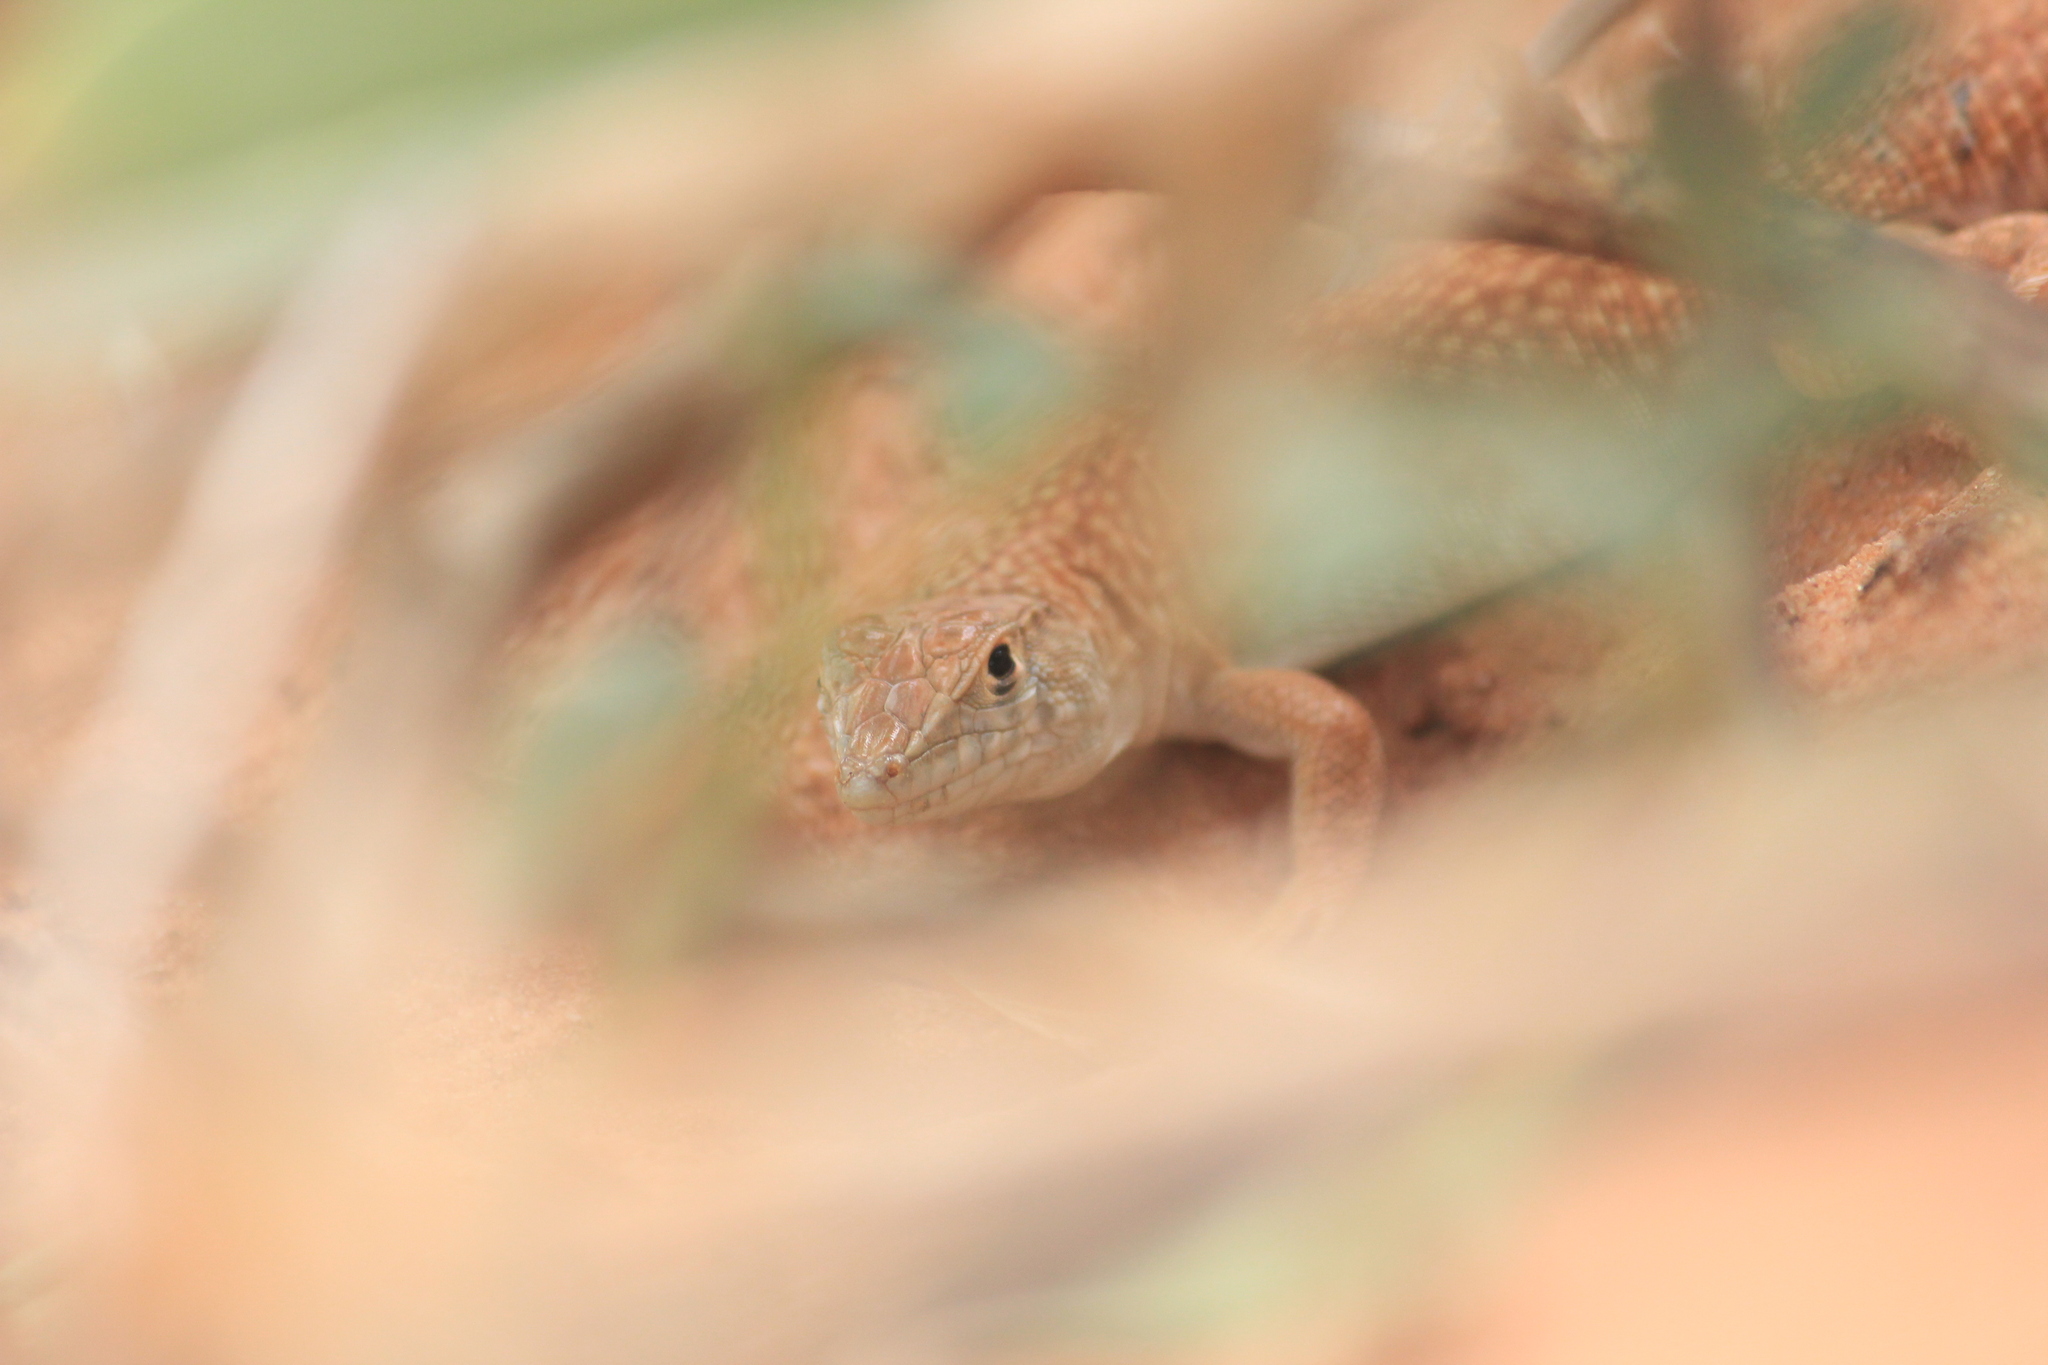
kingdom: Animalia
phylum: Chordata
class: Squamata
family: Lacertidae
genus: Acanthodactylus
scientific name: Acanthodactylus schmidti
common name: Schmidt's fringe-toed lizard
